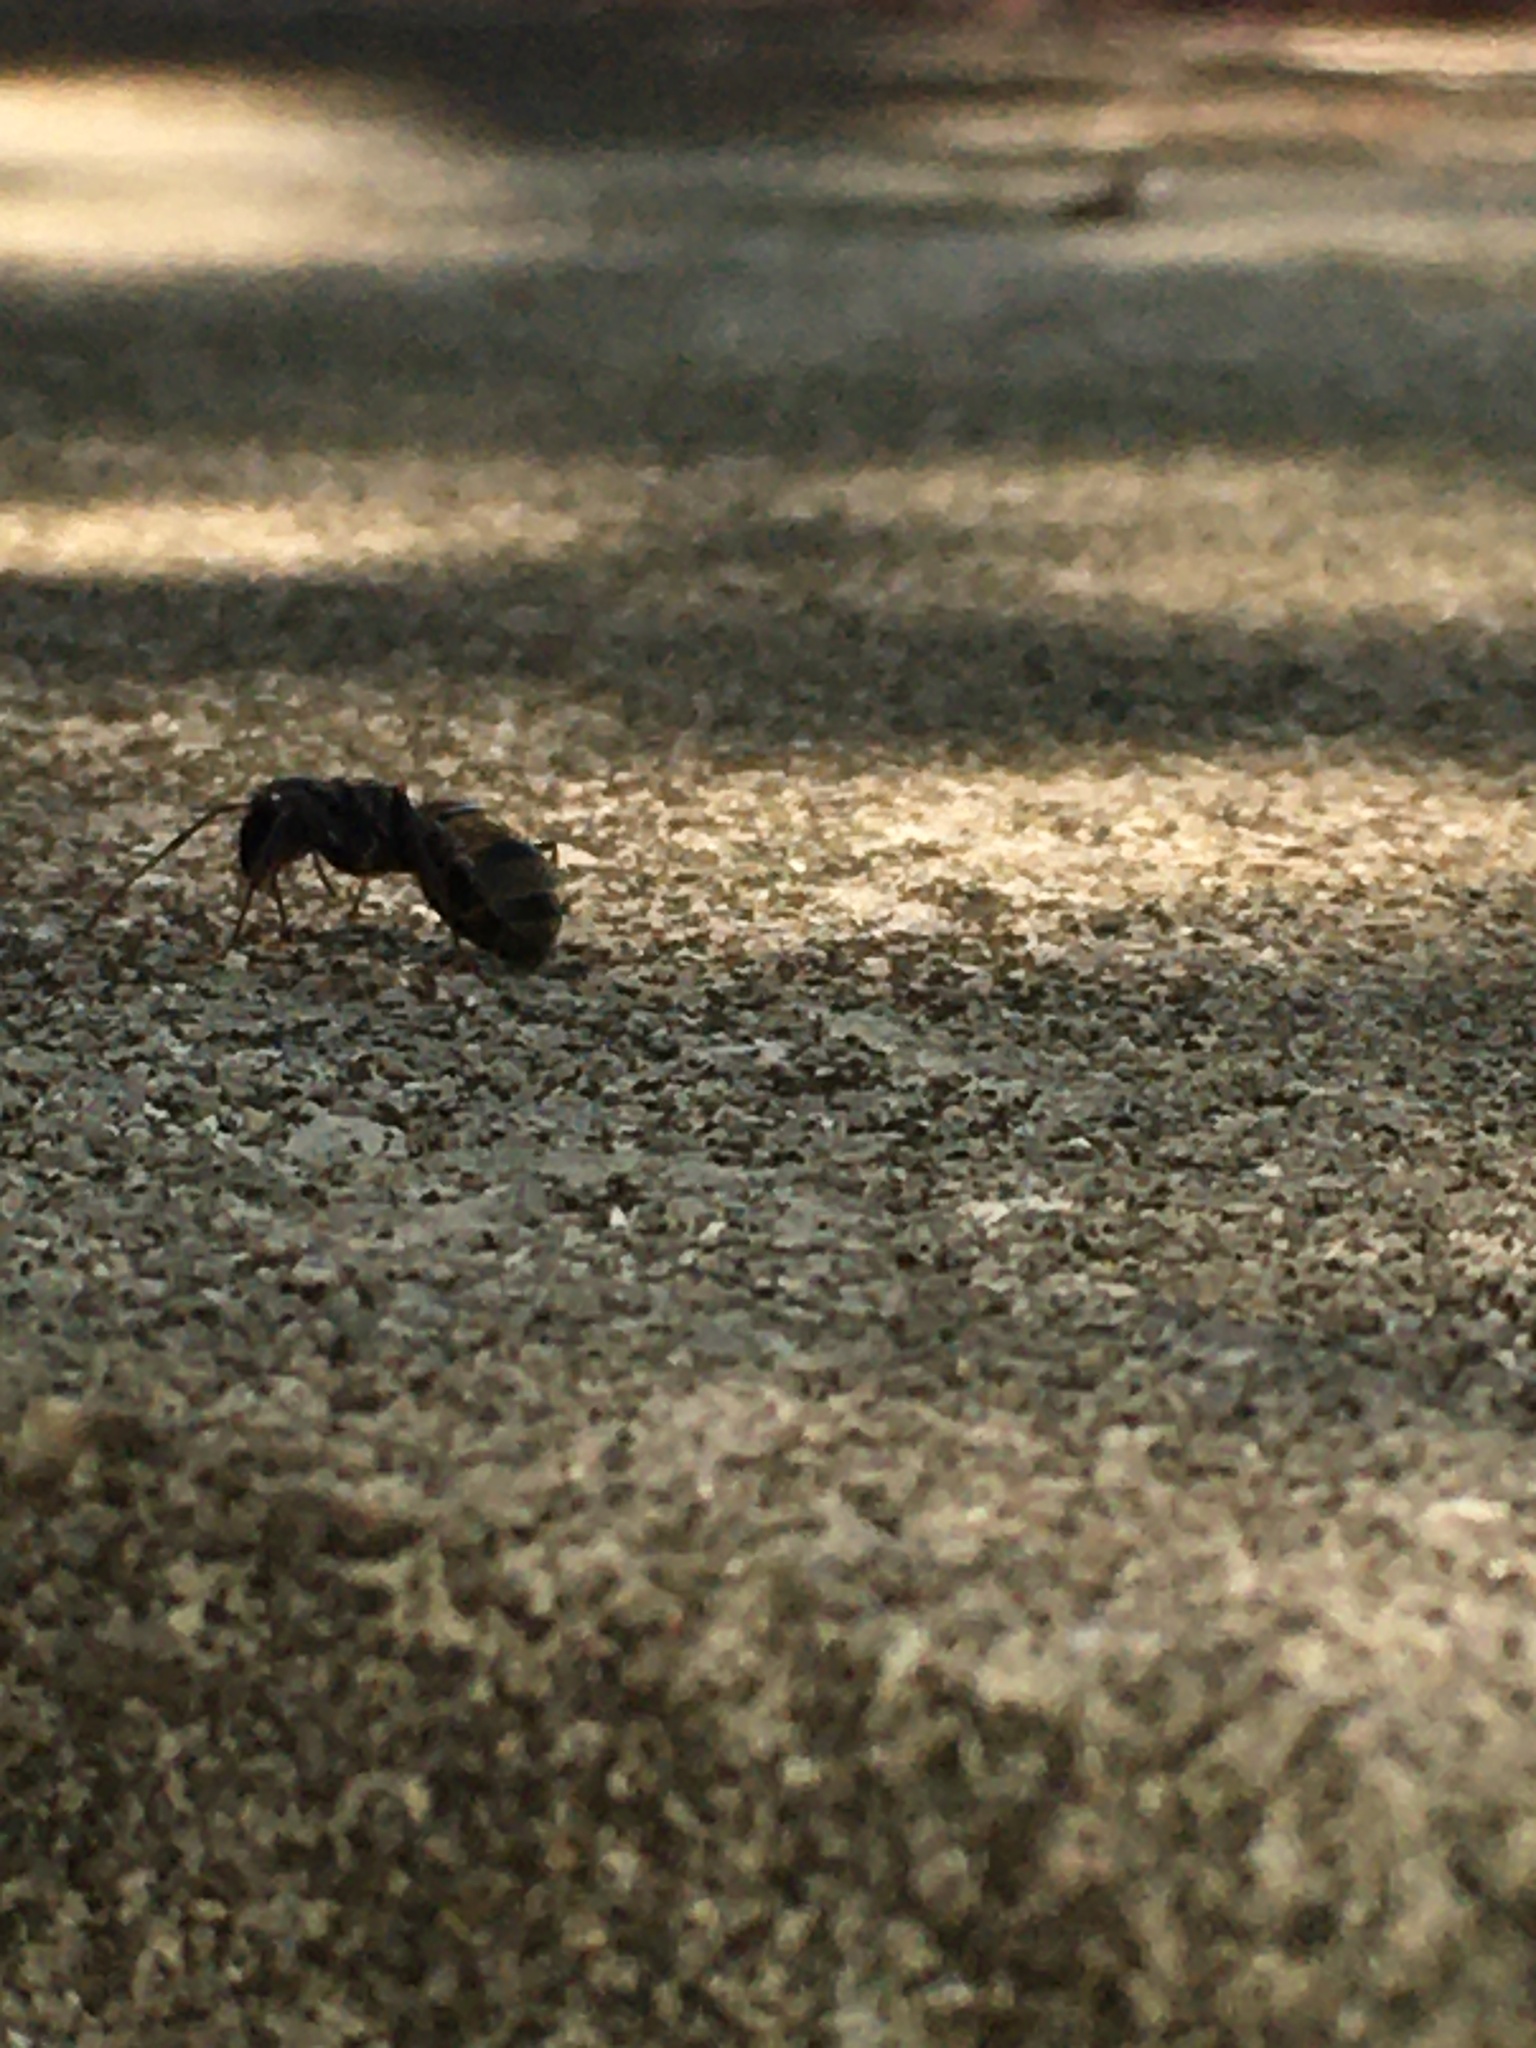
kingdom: Animalia
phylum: Arthropoda
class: Insecta
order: Hymenoptera
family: Formicidae
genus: Camponotus
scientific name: Camponotus pennsylvanicus
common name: Black carpenter ant
